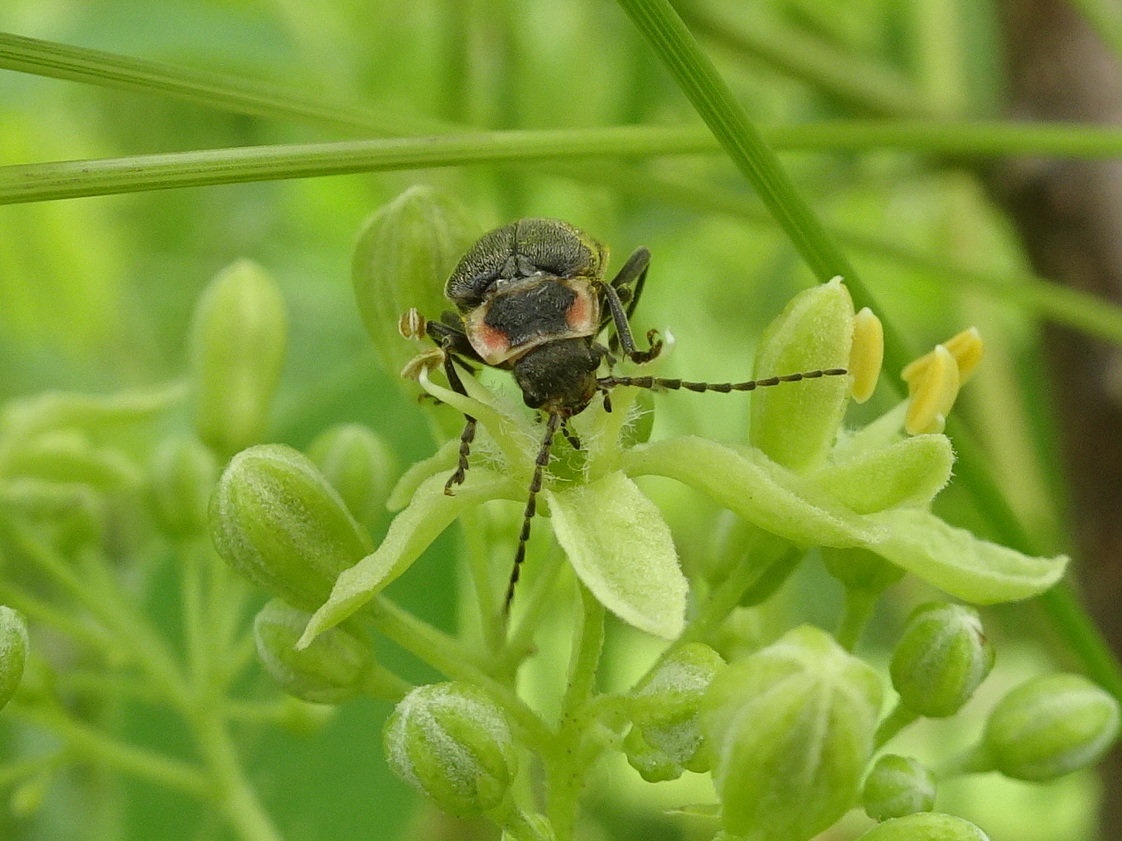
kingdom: Animalia
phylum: Arthropoda
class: Insecta
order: Coleoptera
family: Cantharidae
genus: Atalantycha
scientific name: Atalantycha dentigera
